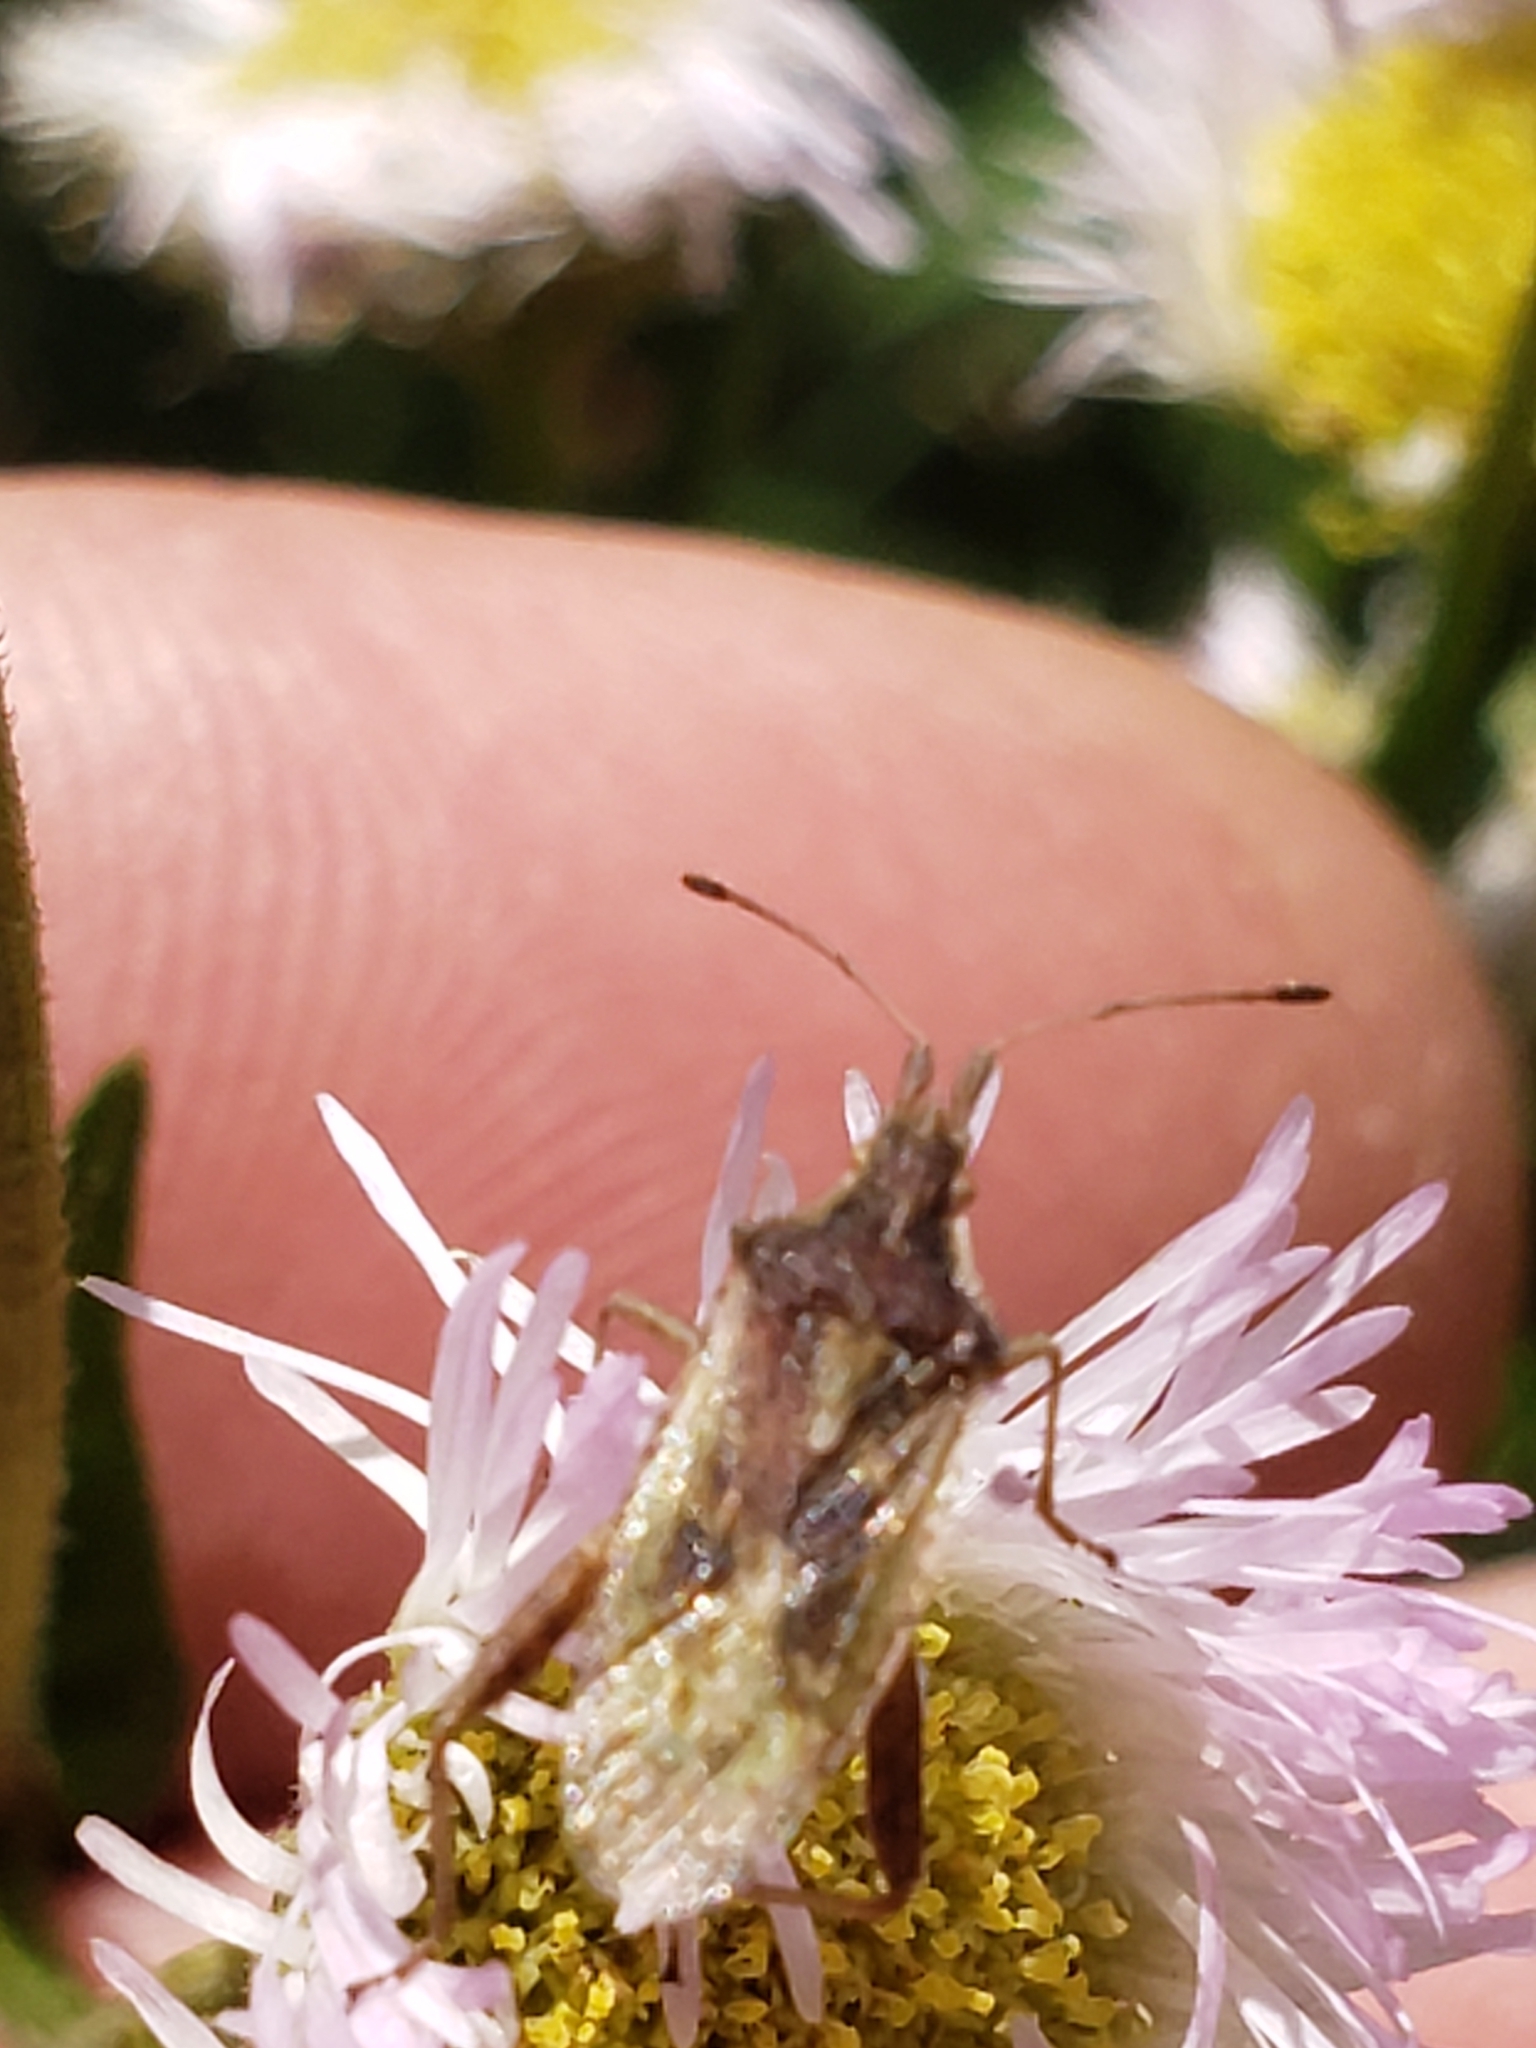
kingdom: Animalia
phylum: Arthropoda
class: Insecta
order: Hemiptera
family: Rhopalidae
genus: Harmostes
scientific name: Harmostes reflexulus
